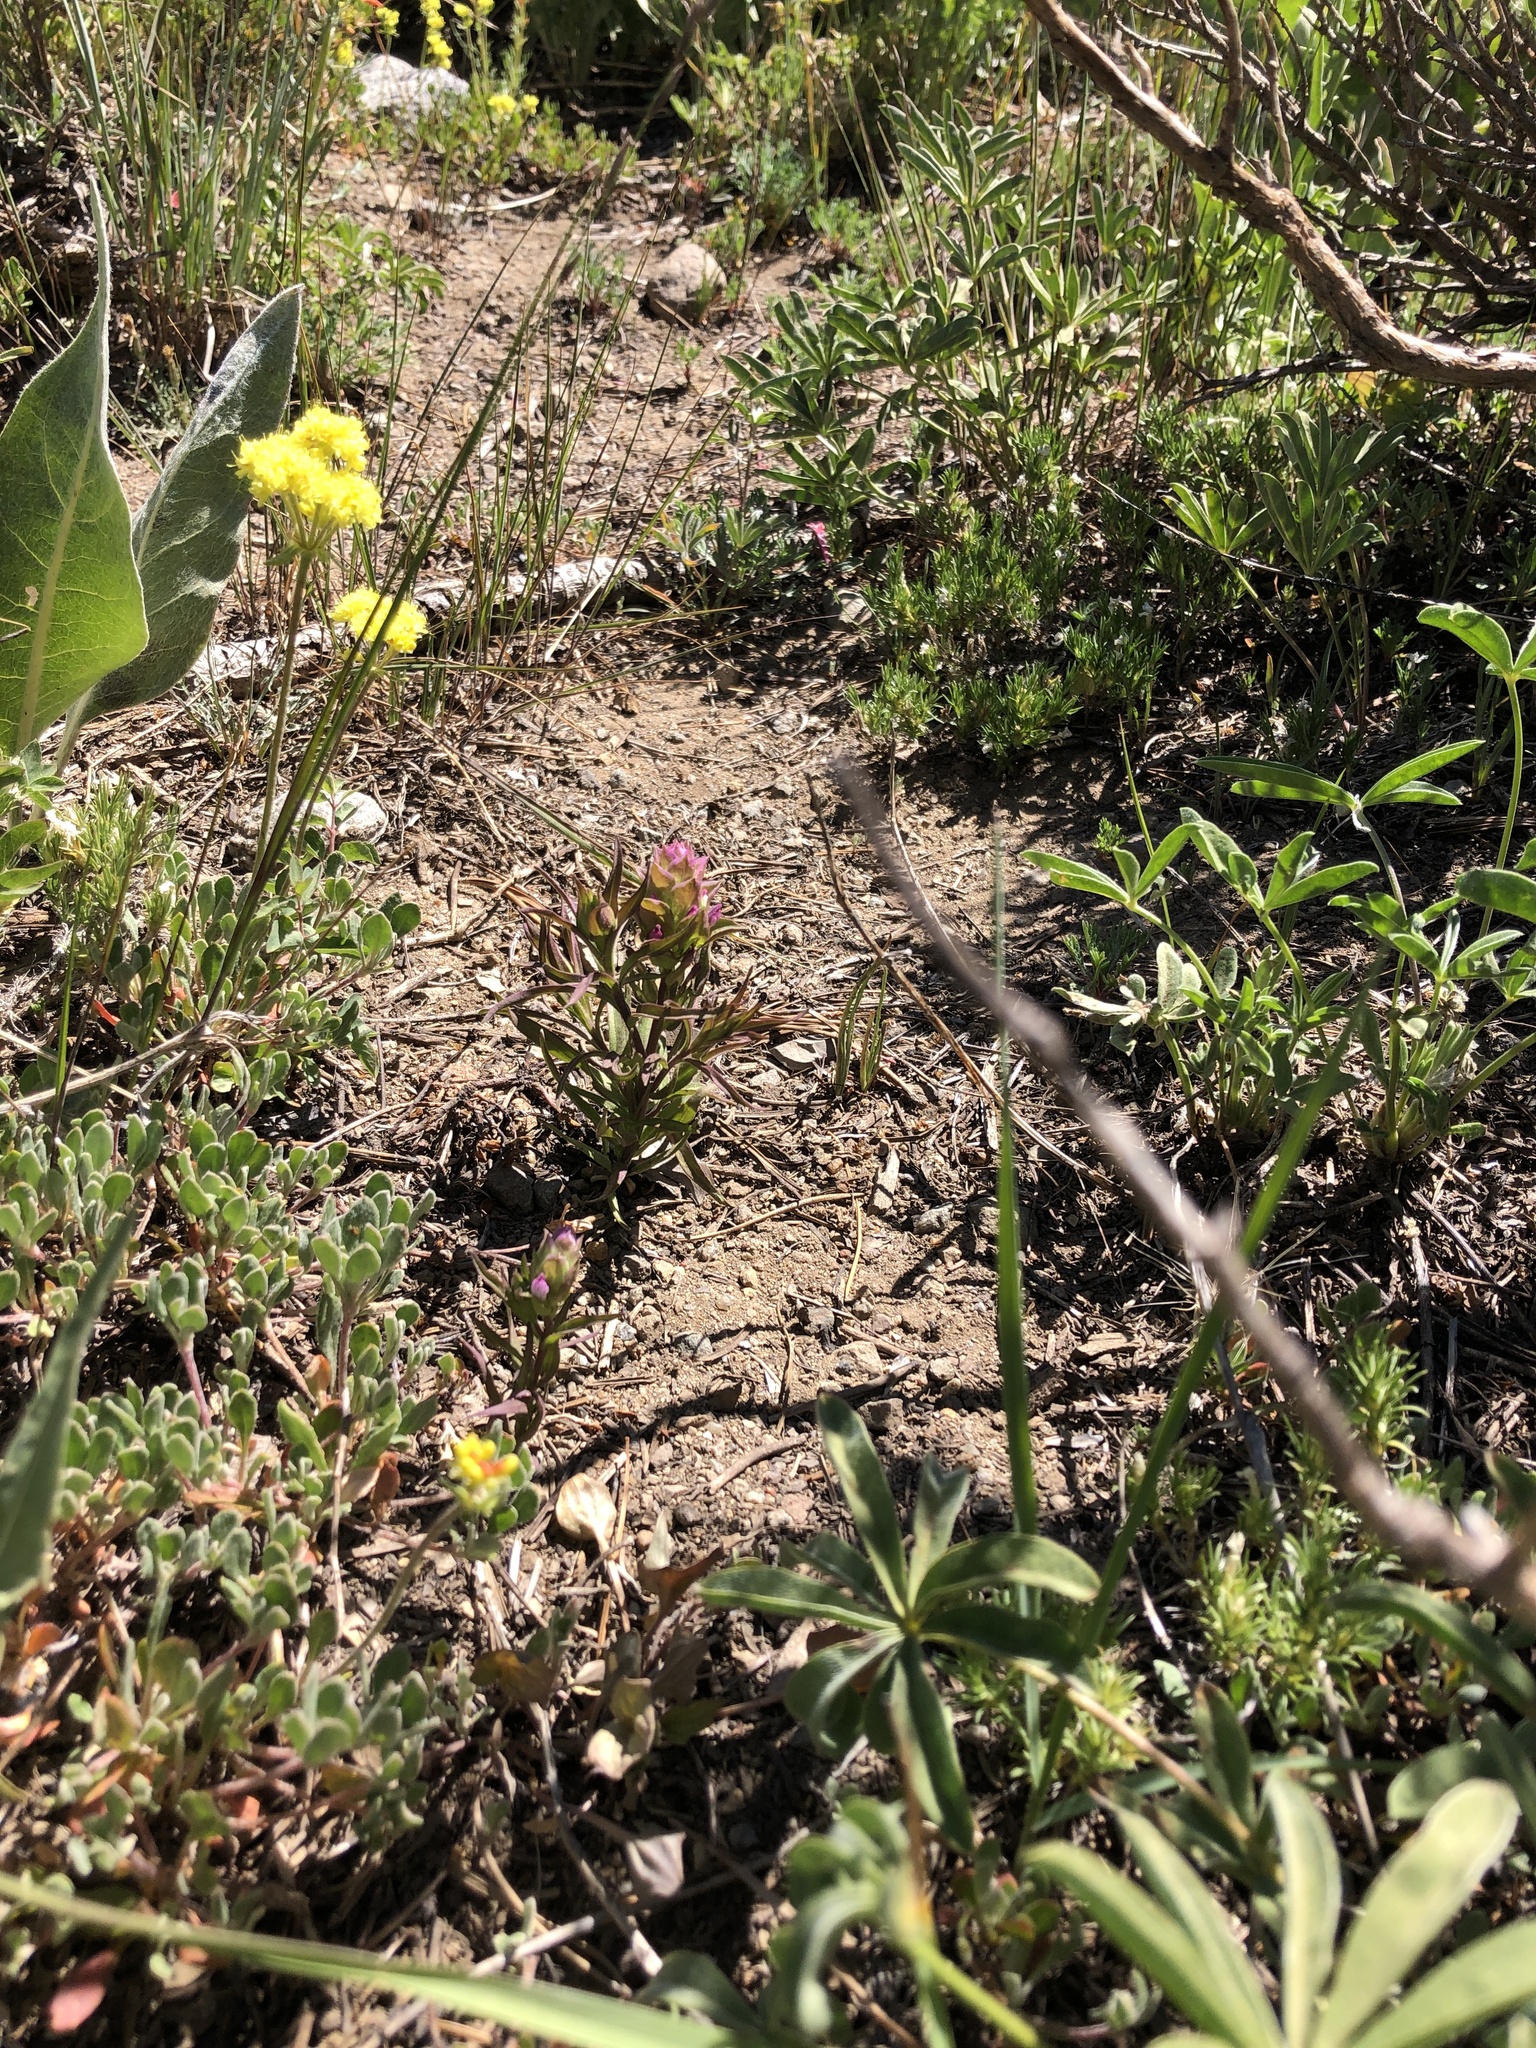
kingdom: Plantae
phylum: Tracheophyta
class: Magnoliopsida
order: Lamiales
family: Orobanchaceae
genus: Orthocarpus
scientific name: Orthocarpus cuspidatus
